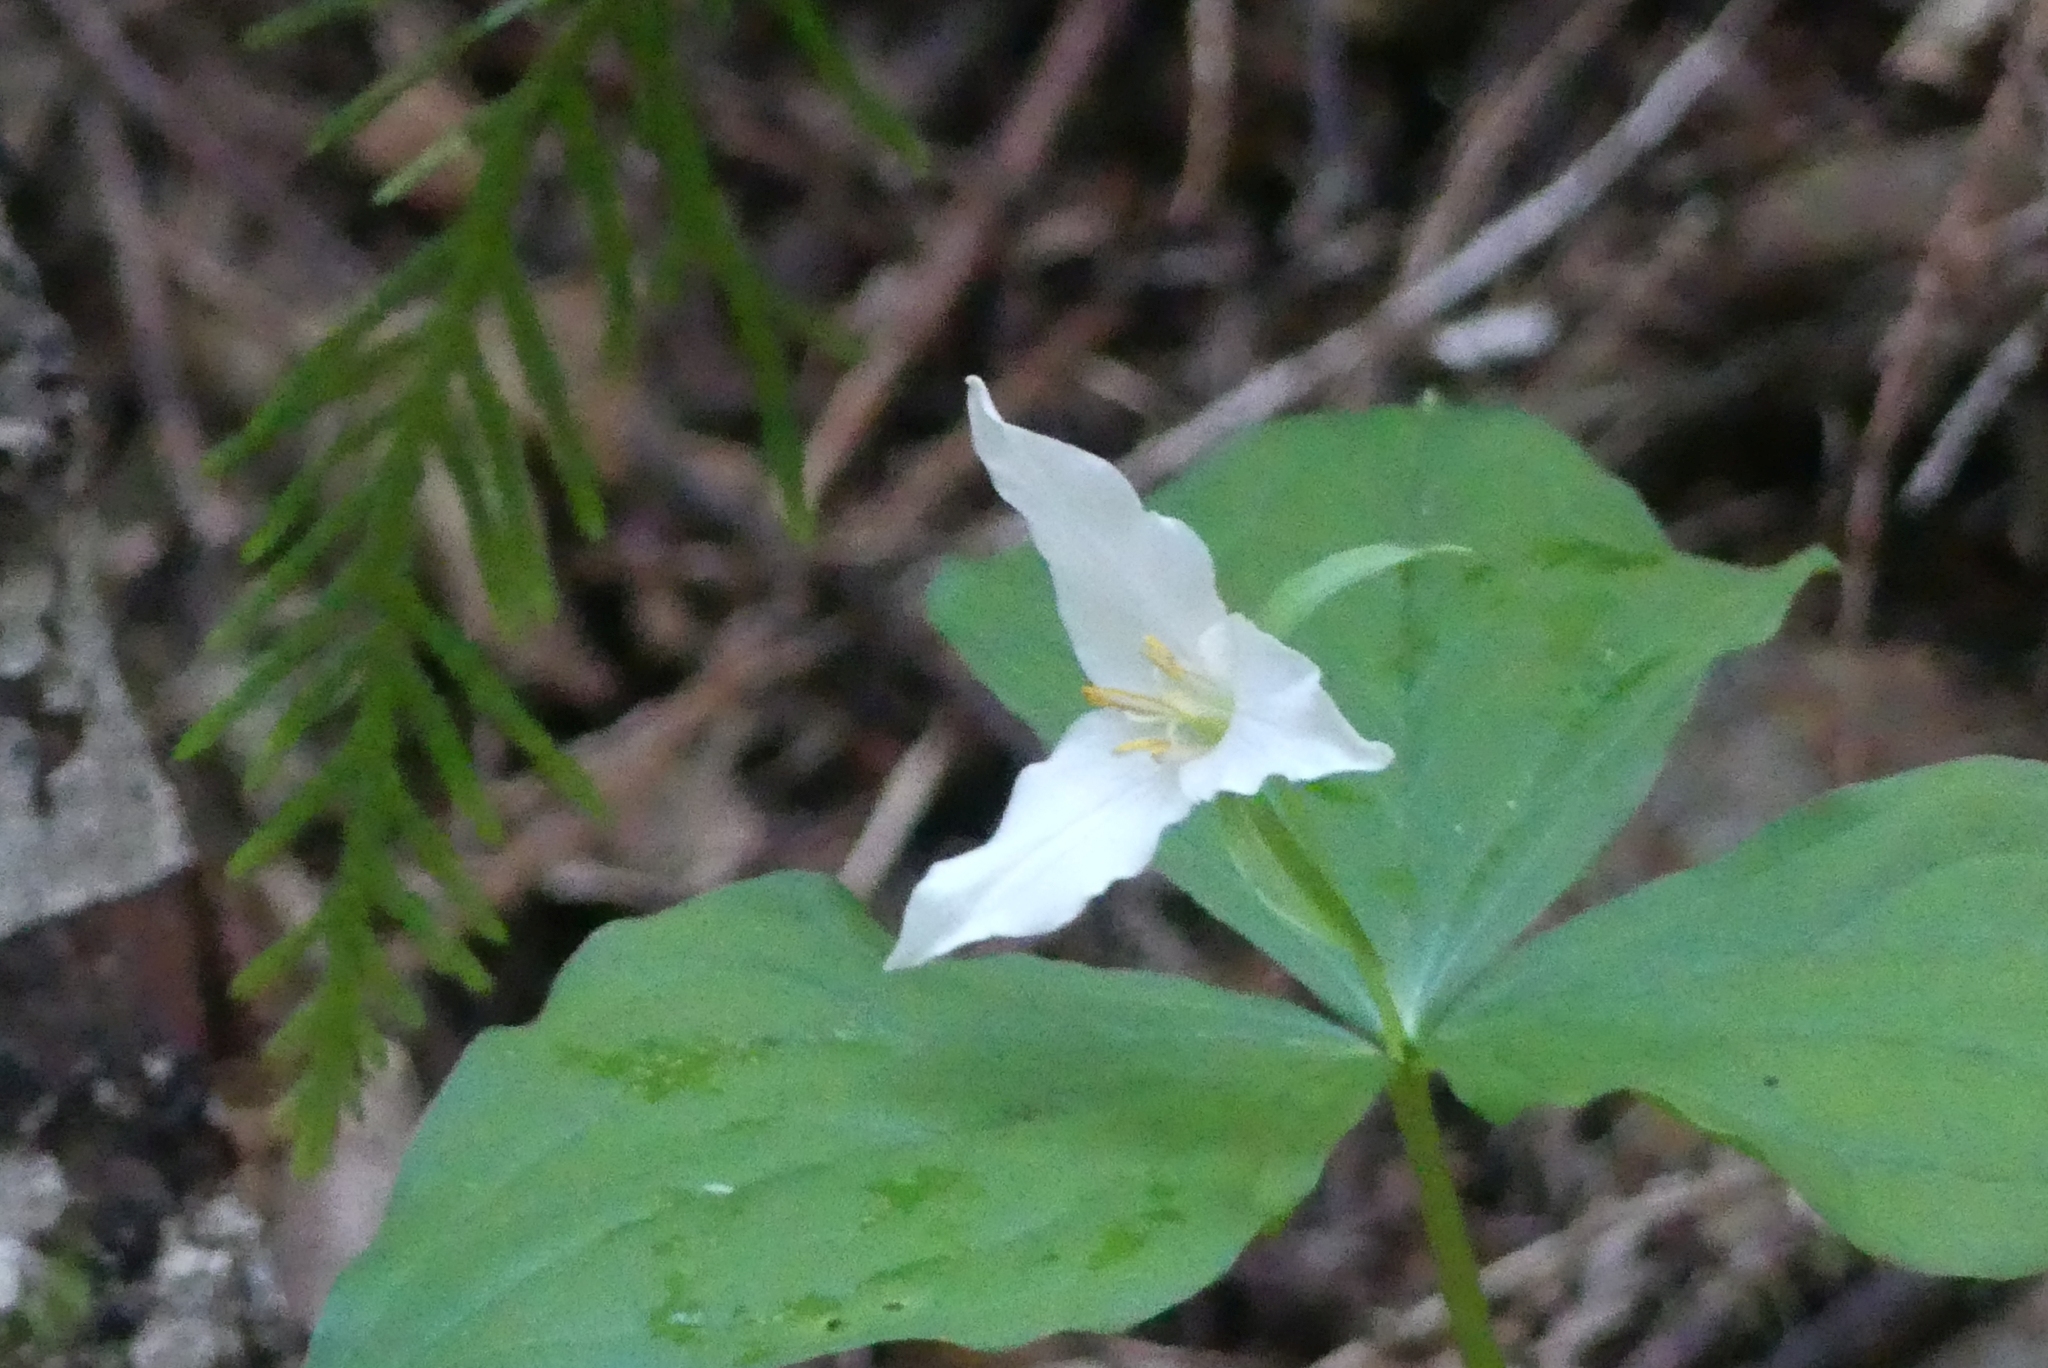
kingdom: Plantae
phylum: Tracheophyta
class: Liliopsida
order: Liliales
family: Melanthiaceae
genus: Trillium
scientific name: Trillium ovatum
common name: Pacific trillium
